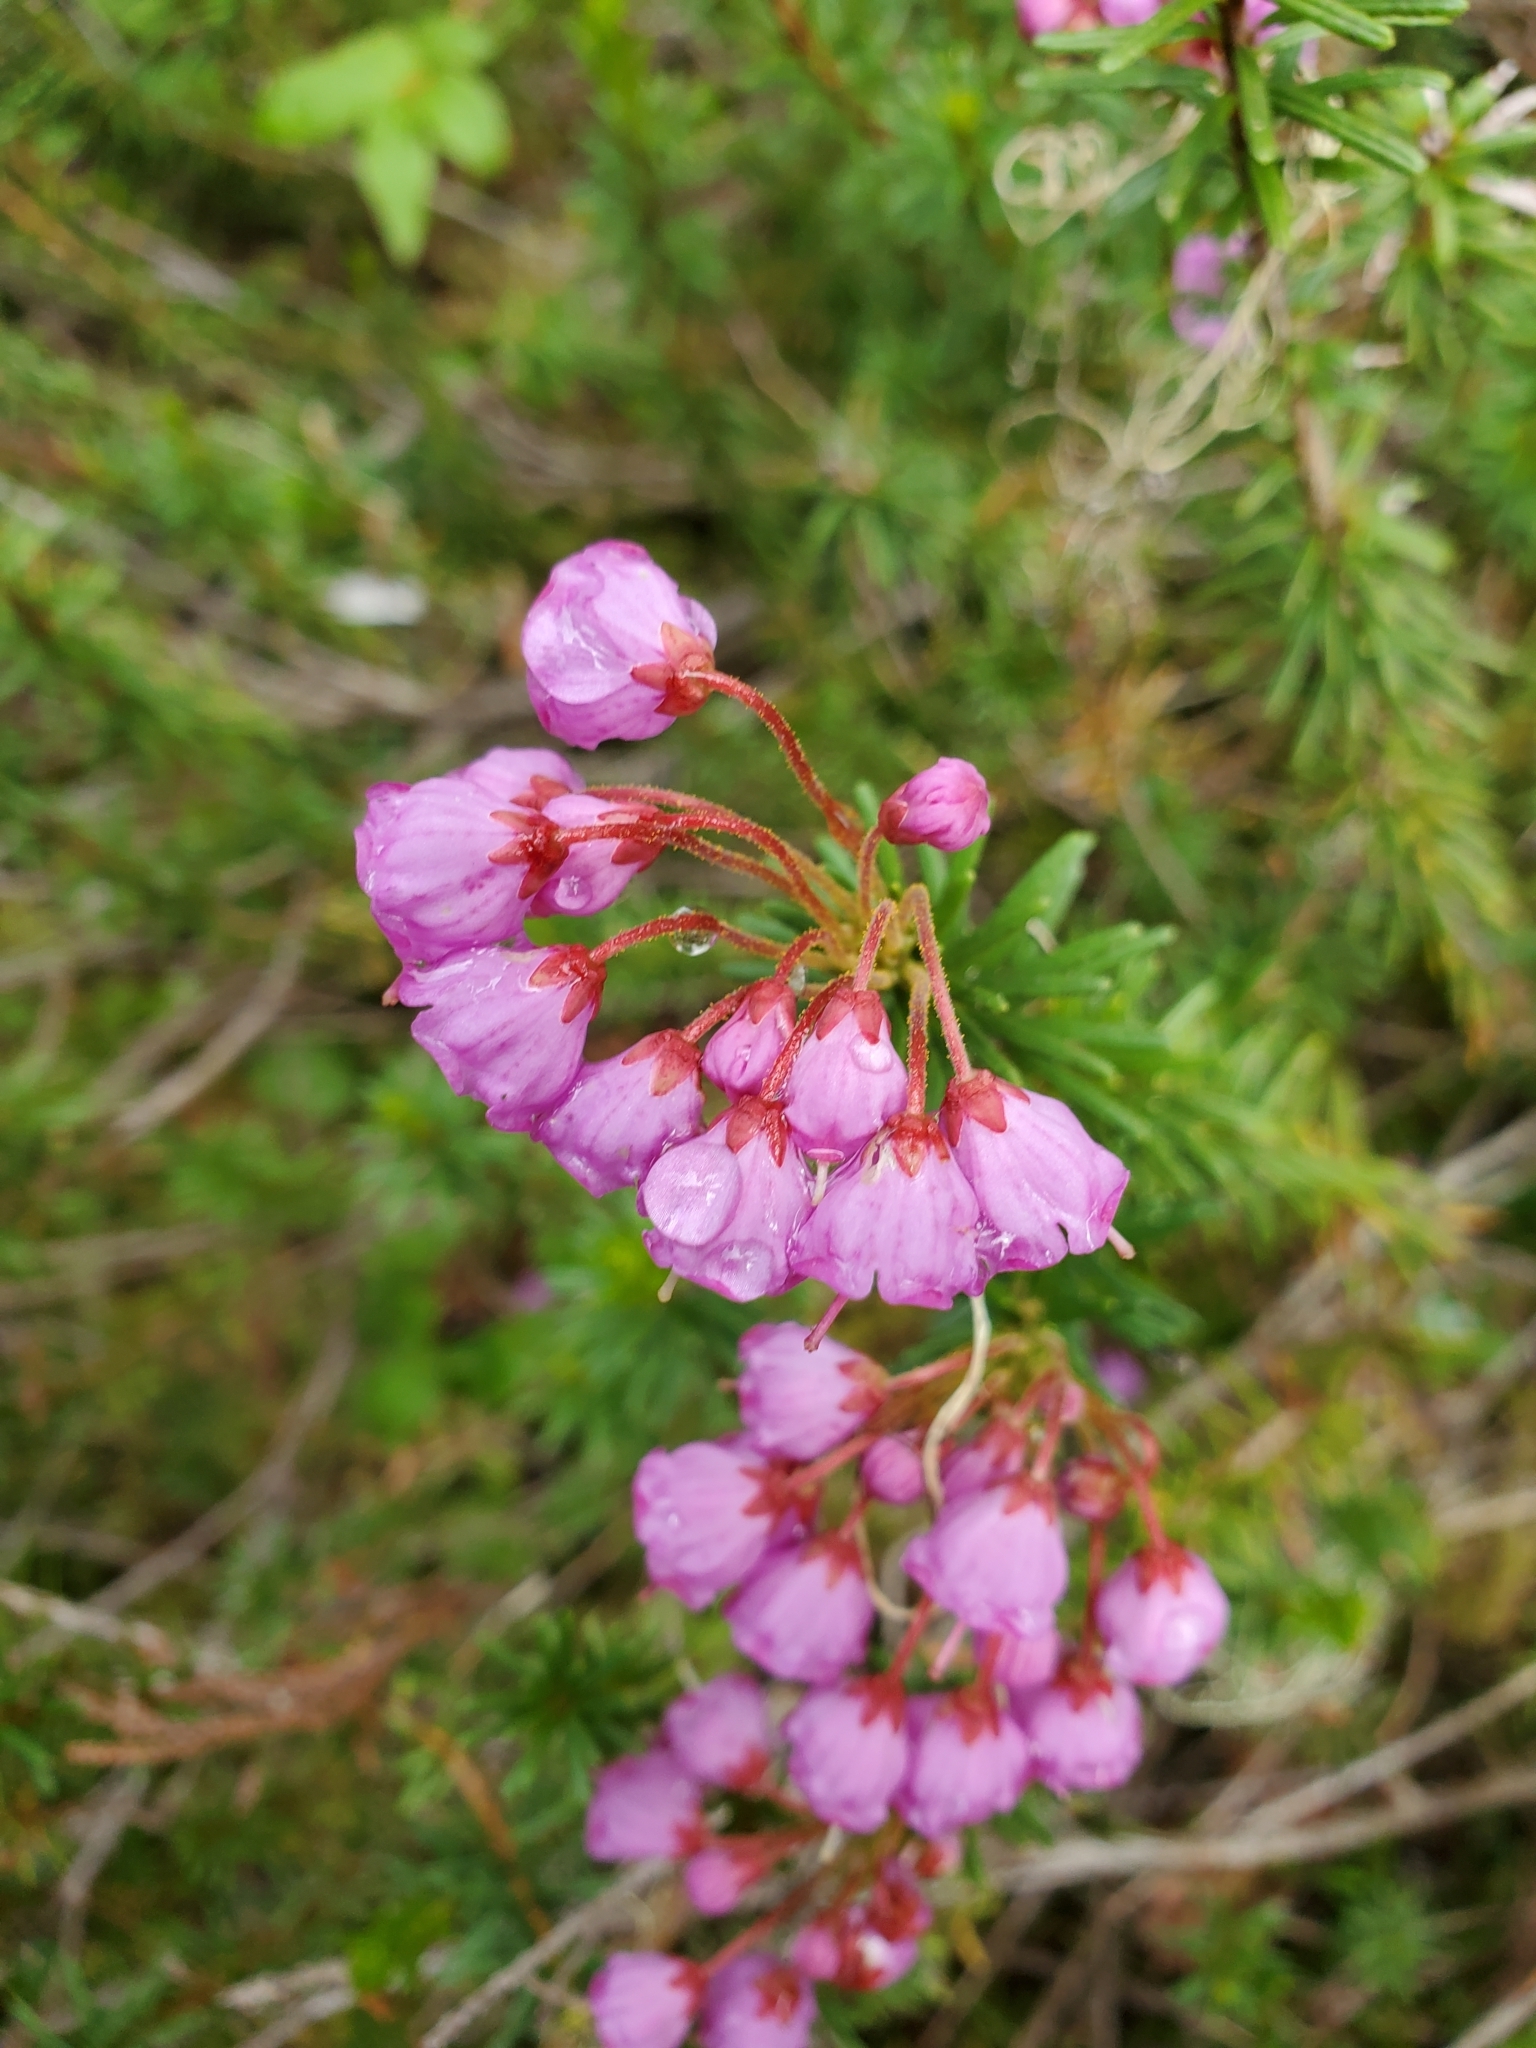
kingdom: Plantae
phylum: Tracheophyta
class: Magnoliopsida
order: Ericales
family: Ericaceae
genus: Phyllodoce
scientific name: Phyllodoce empetriformis
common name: Pink mountain heather
